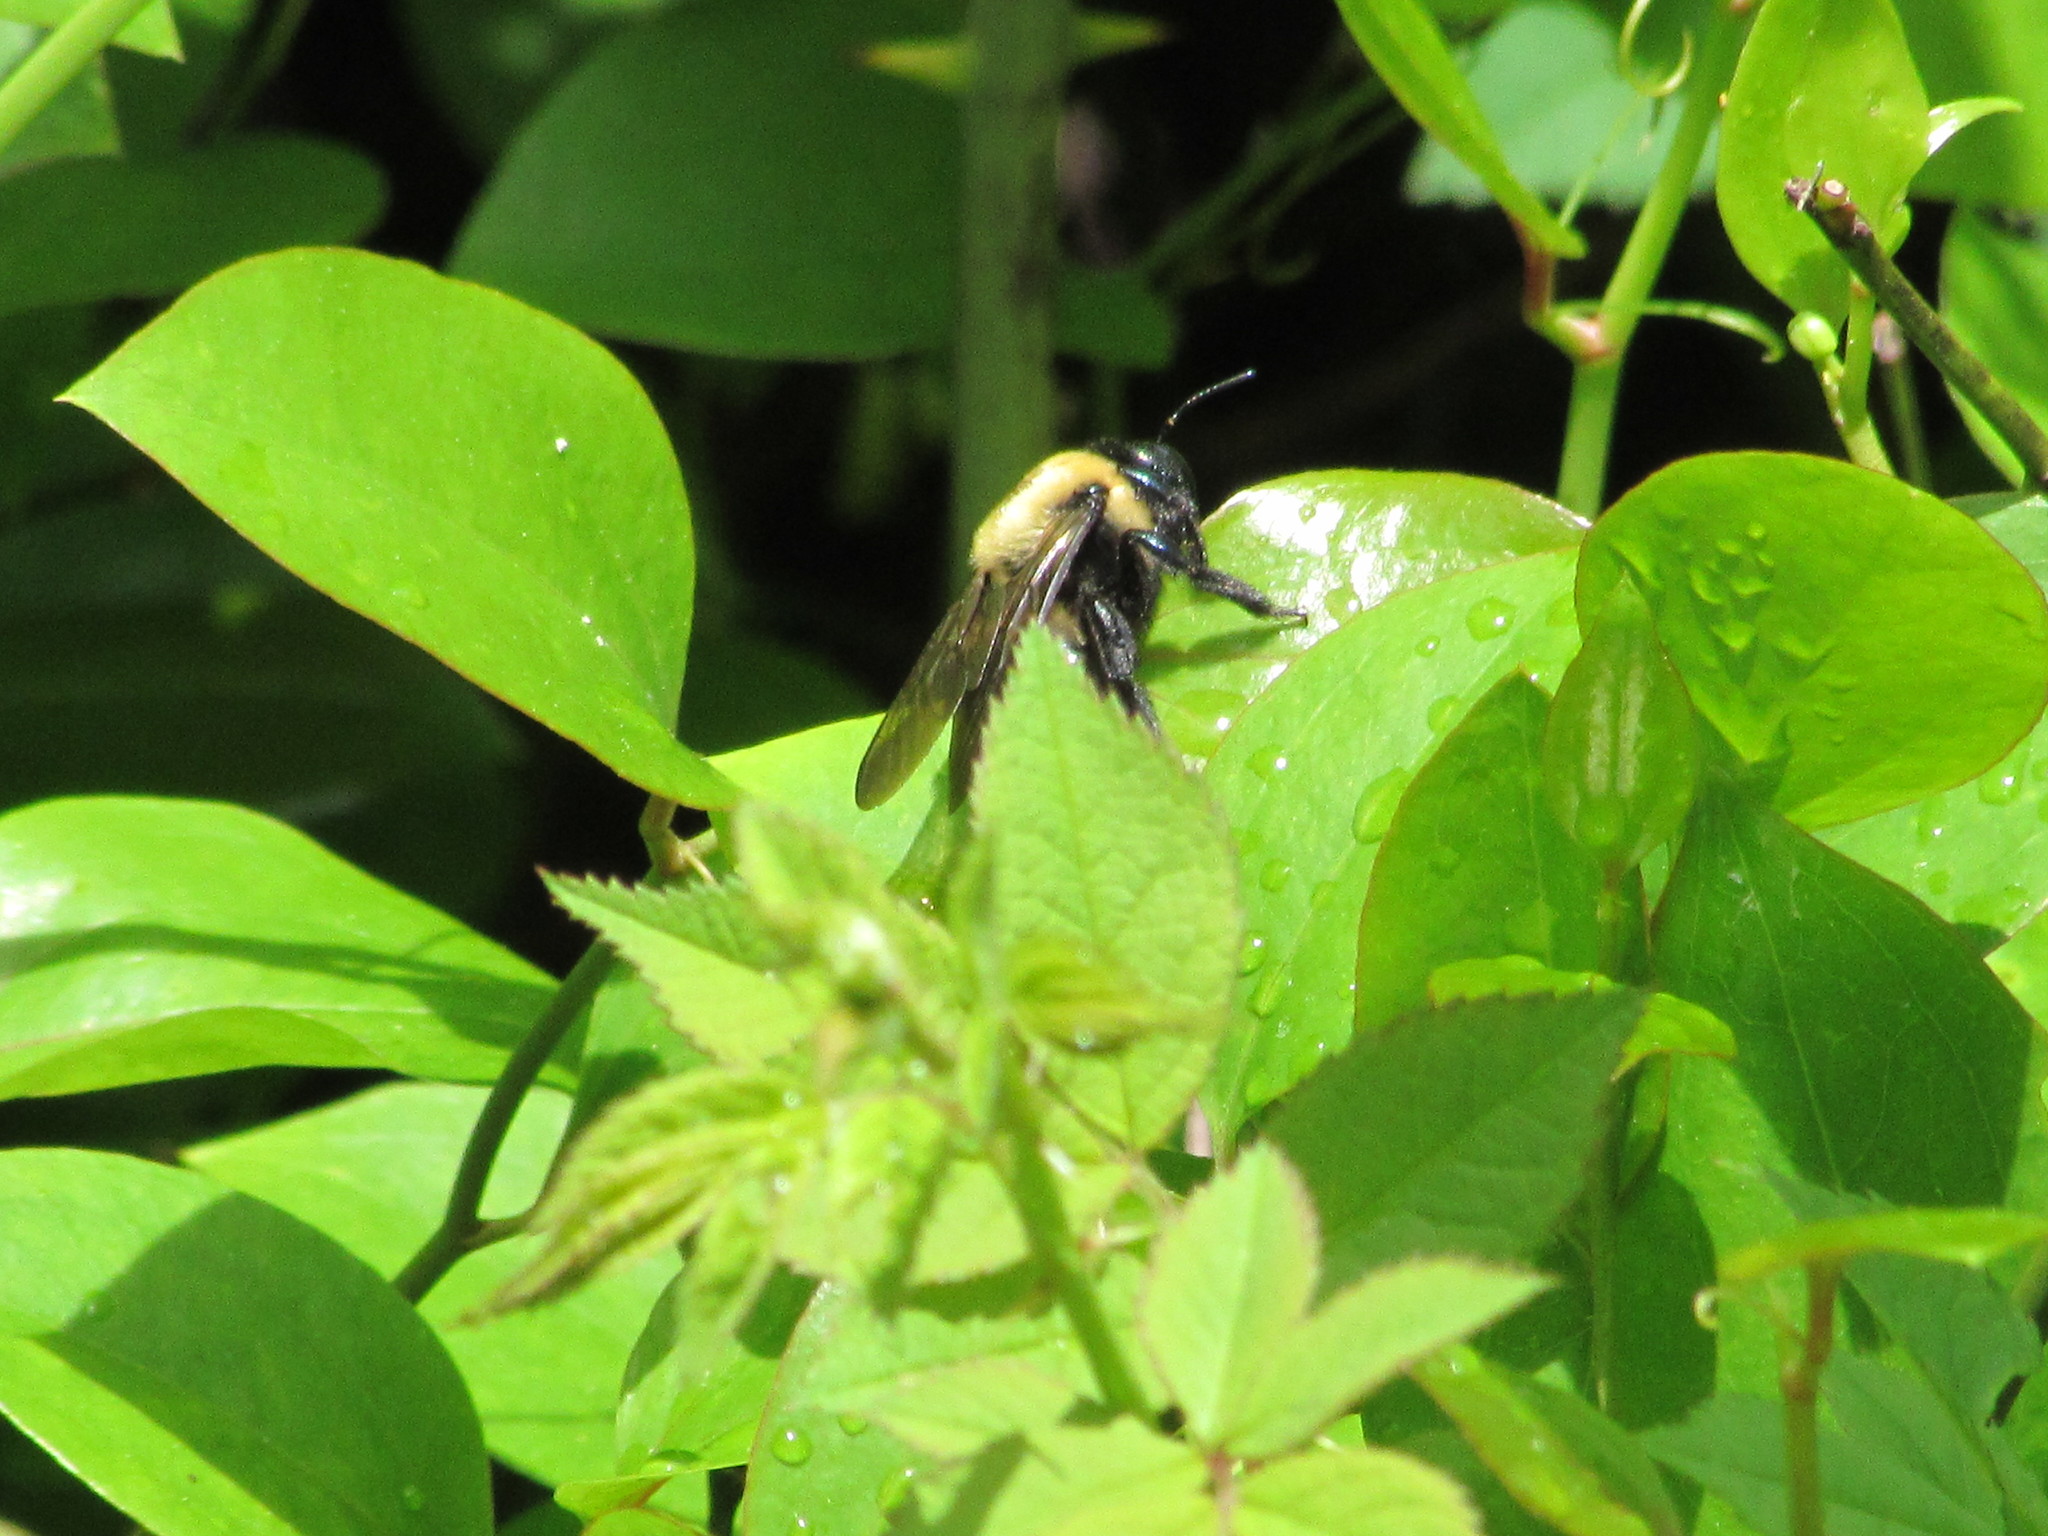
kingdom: Animalia
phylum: Arthropoda
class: Insecta
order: Hymenoptera
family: Apidae
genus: Xylocopa
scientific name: Xylocopa virginica
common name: Carpenter bee
